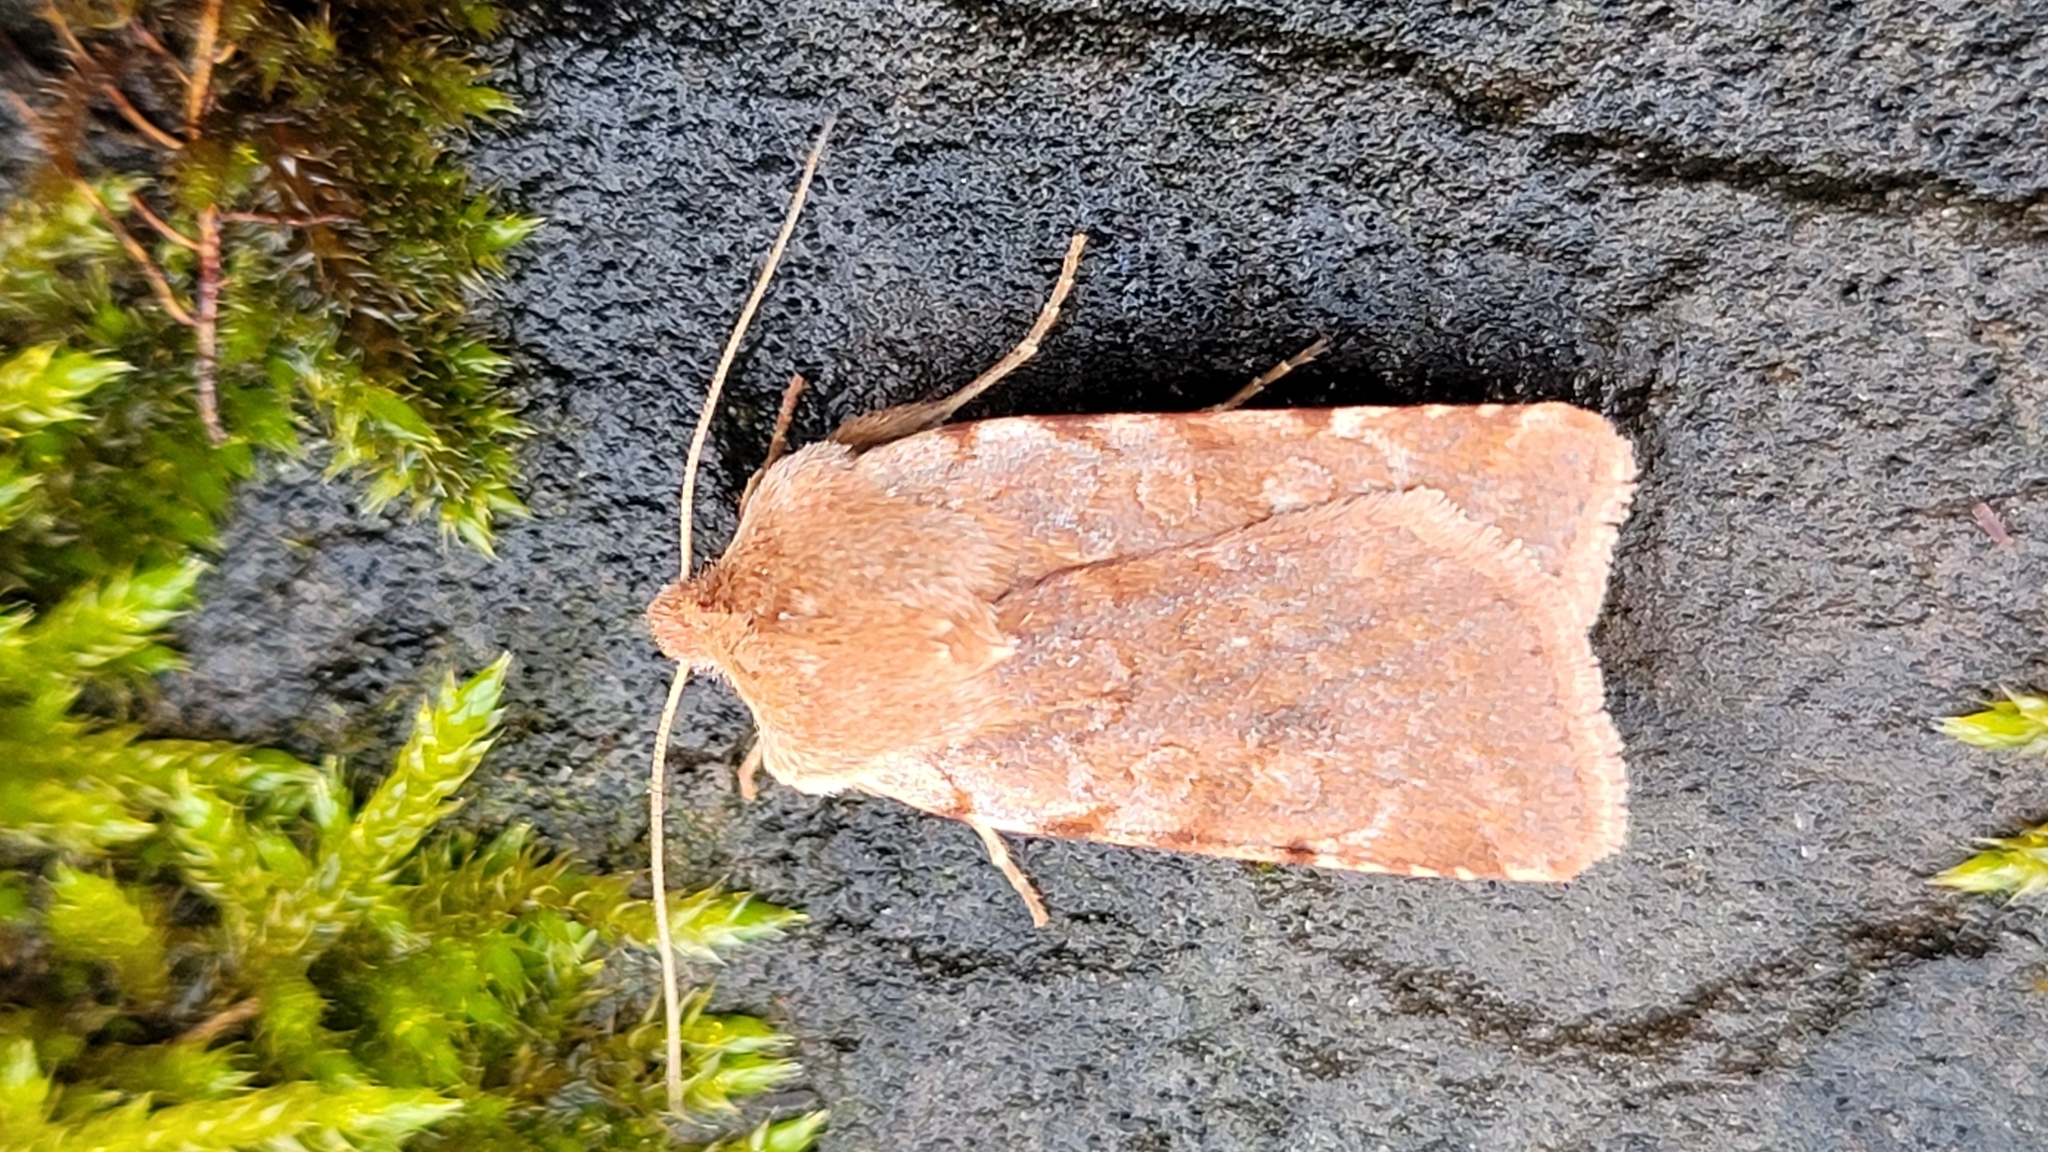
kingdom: Animalia
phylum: Arthropoda
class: Insecta
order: Lepidoptera
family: Noctuidae
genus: Cerastis
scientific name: Cerastis rubricosa
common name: Red chestnut
